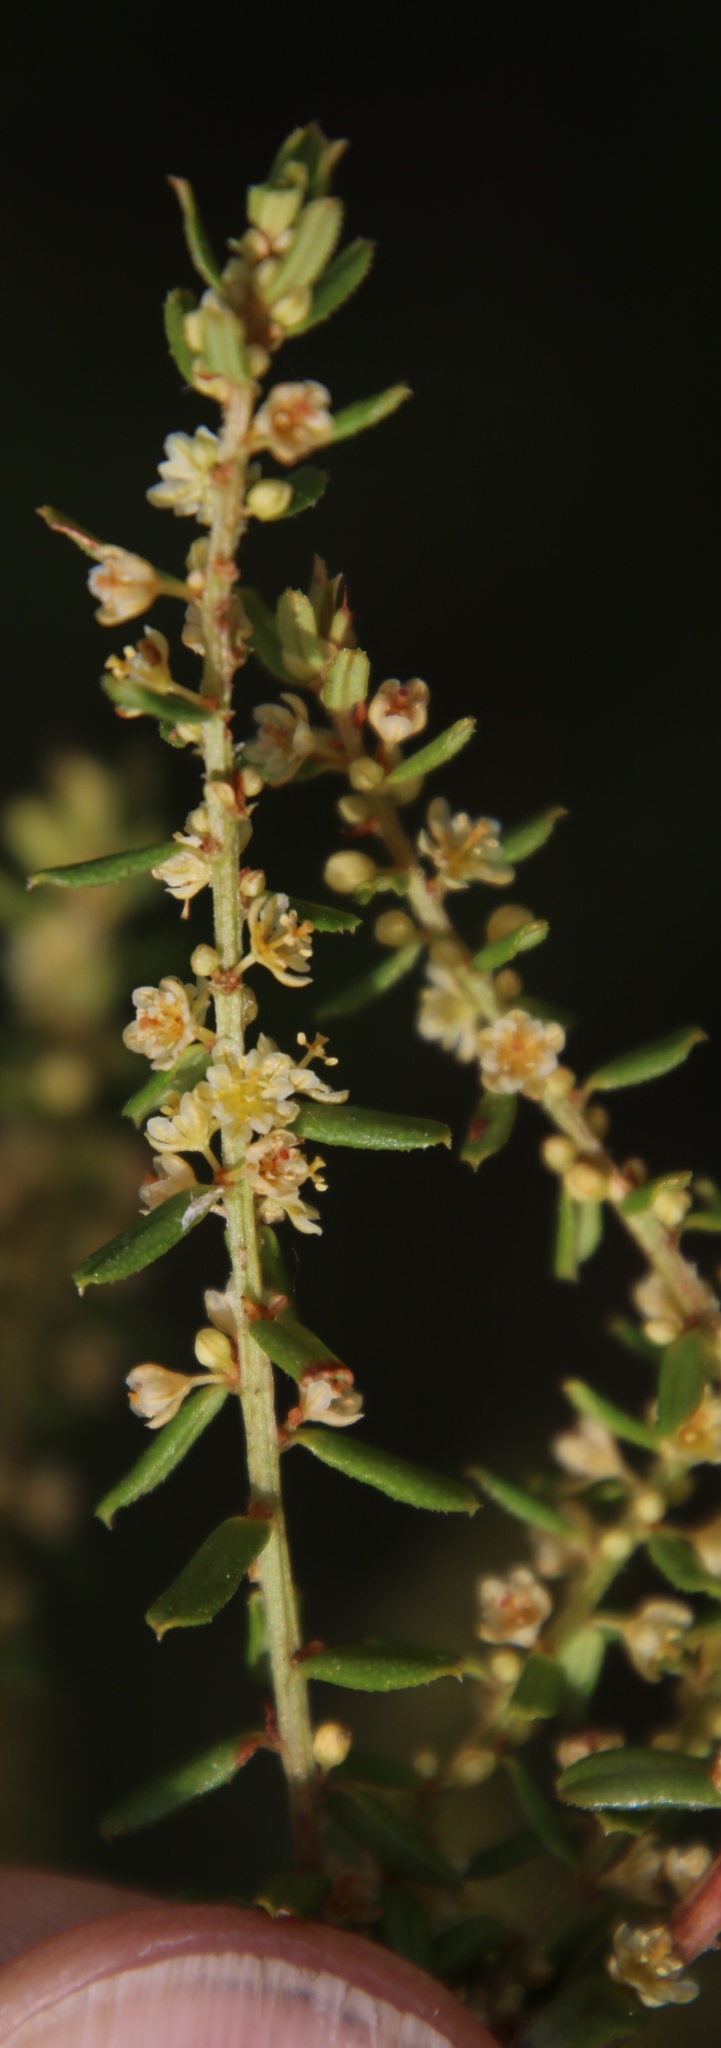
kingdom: Plantae
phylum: Tracheophyta
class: Magnoliopsida
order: Malpighiales
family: Peraceae
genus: Clutia
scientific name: Clutia polygonoides
